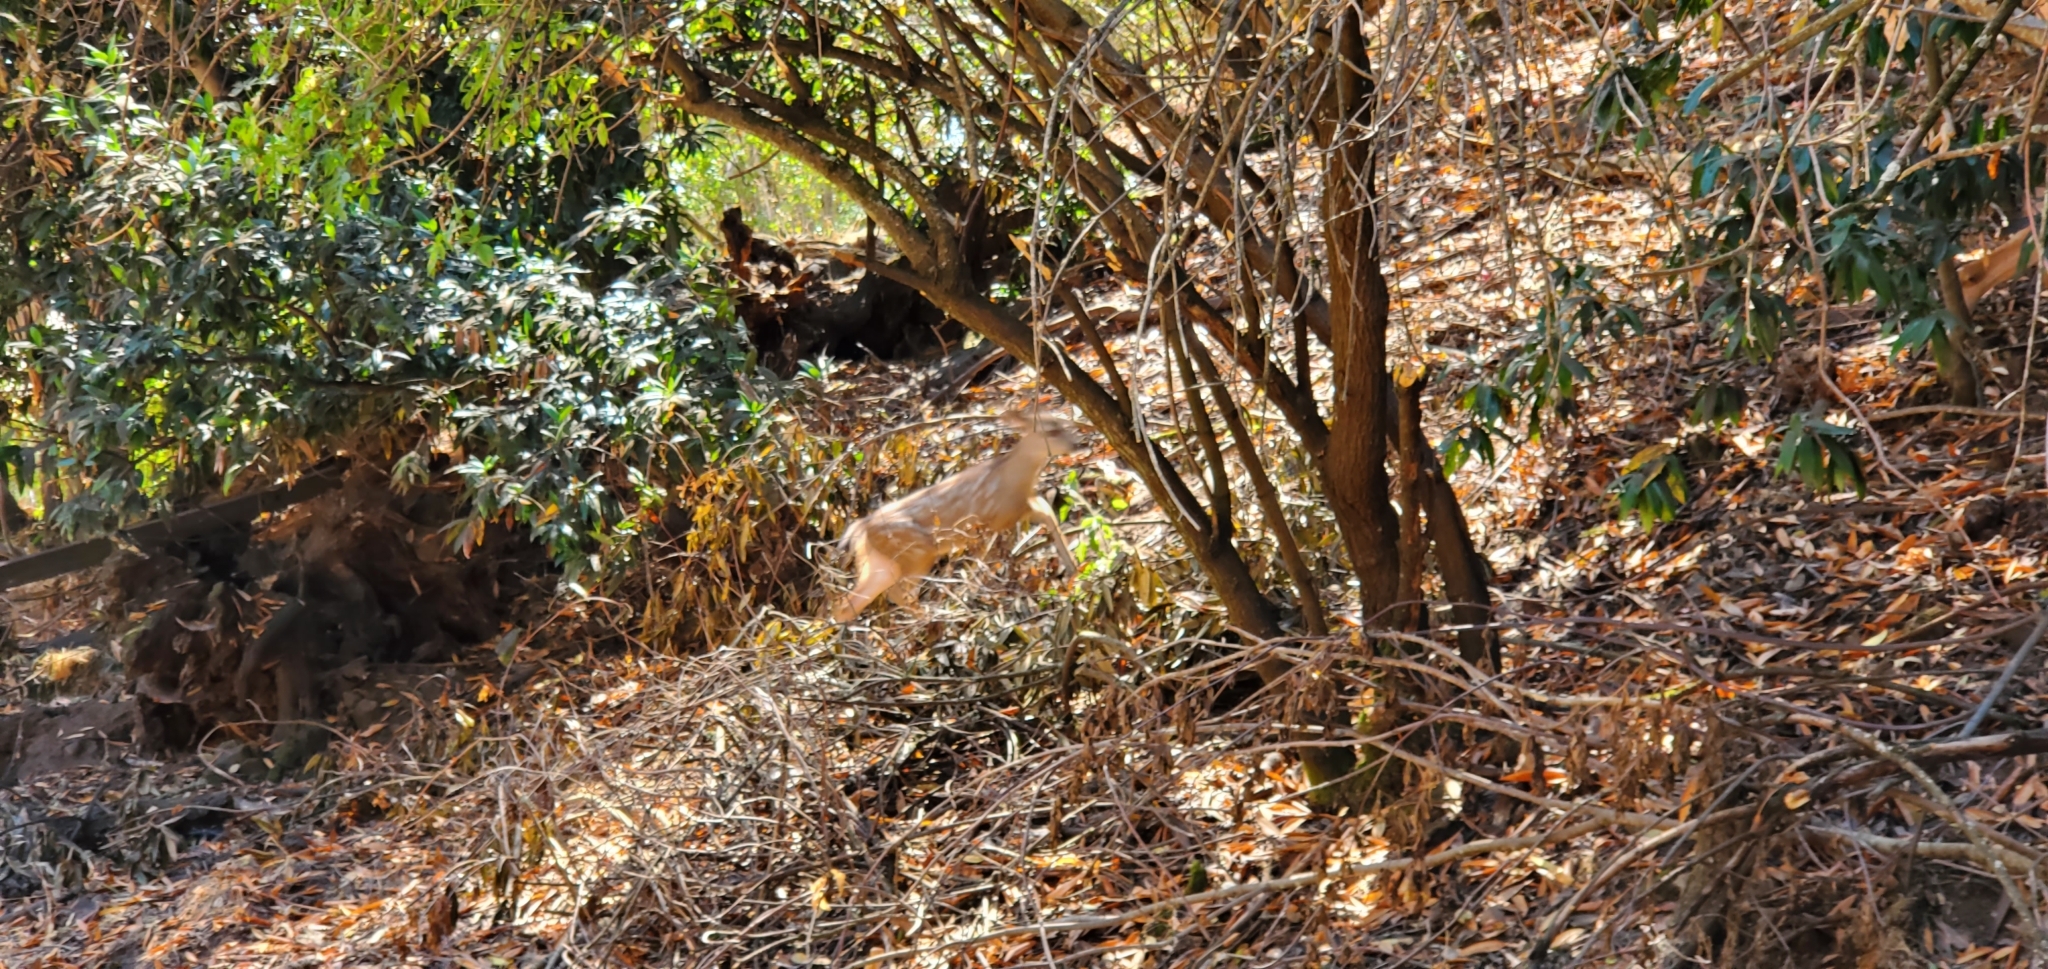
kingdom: Animalia
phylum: Chordata
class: Mammalia
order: Artiodactyla
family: Cervidae
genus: Odocoileus
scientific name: Odocoileus hemionus
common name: Mule deer
